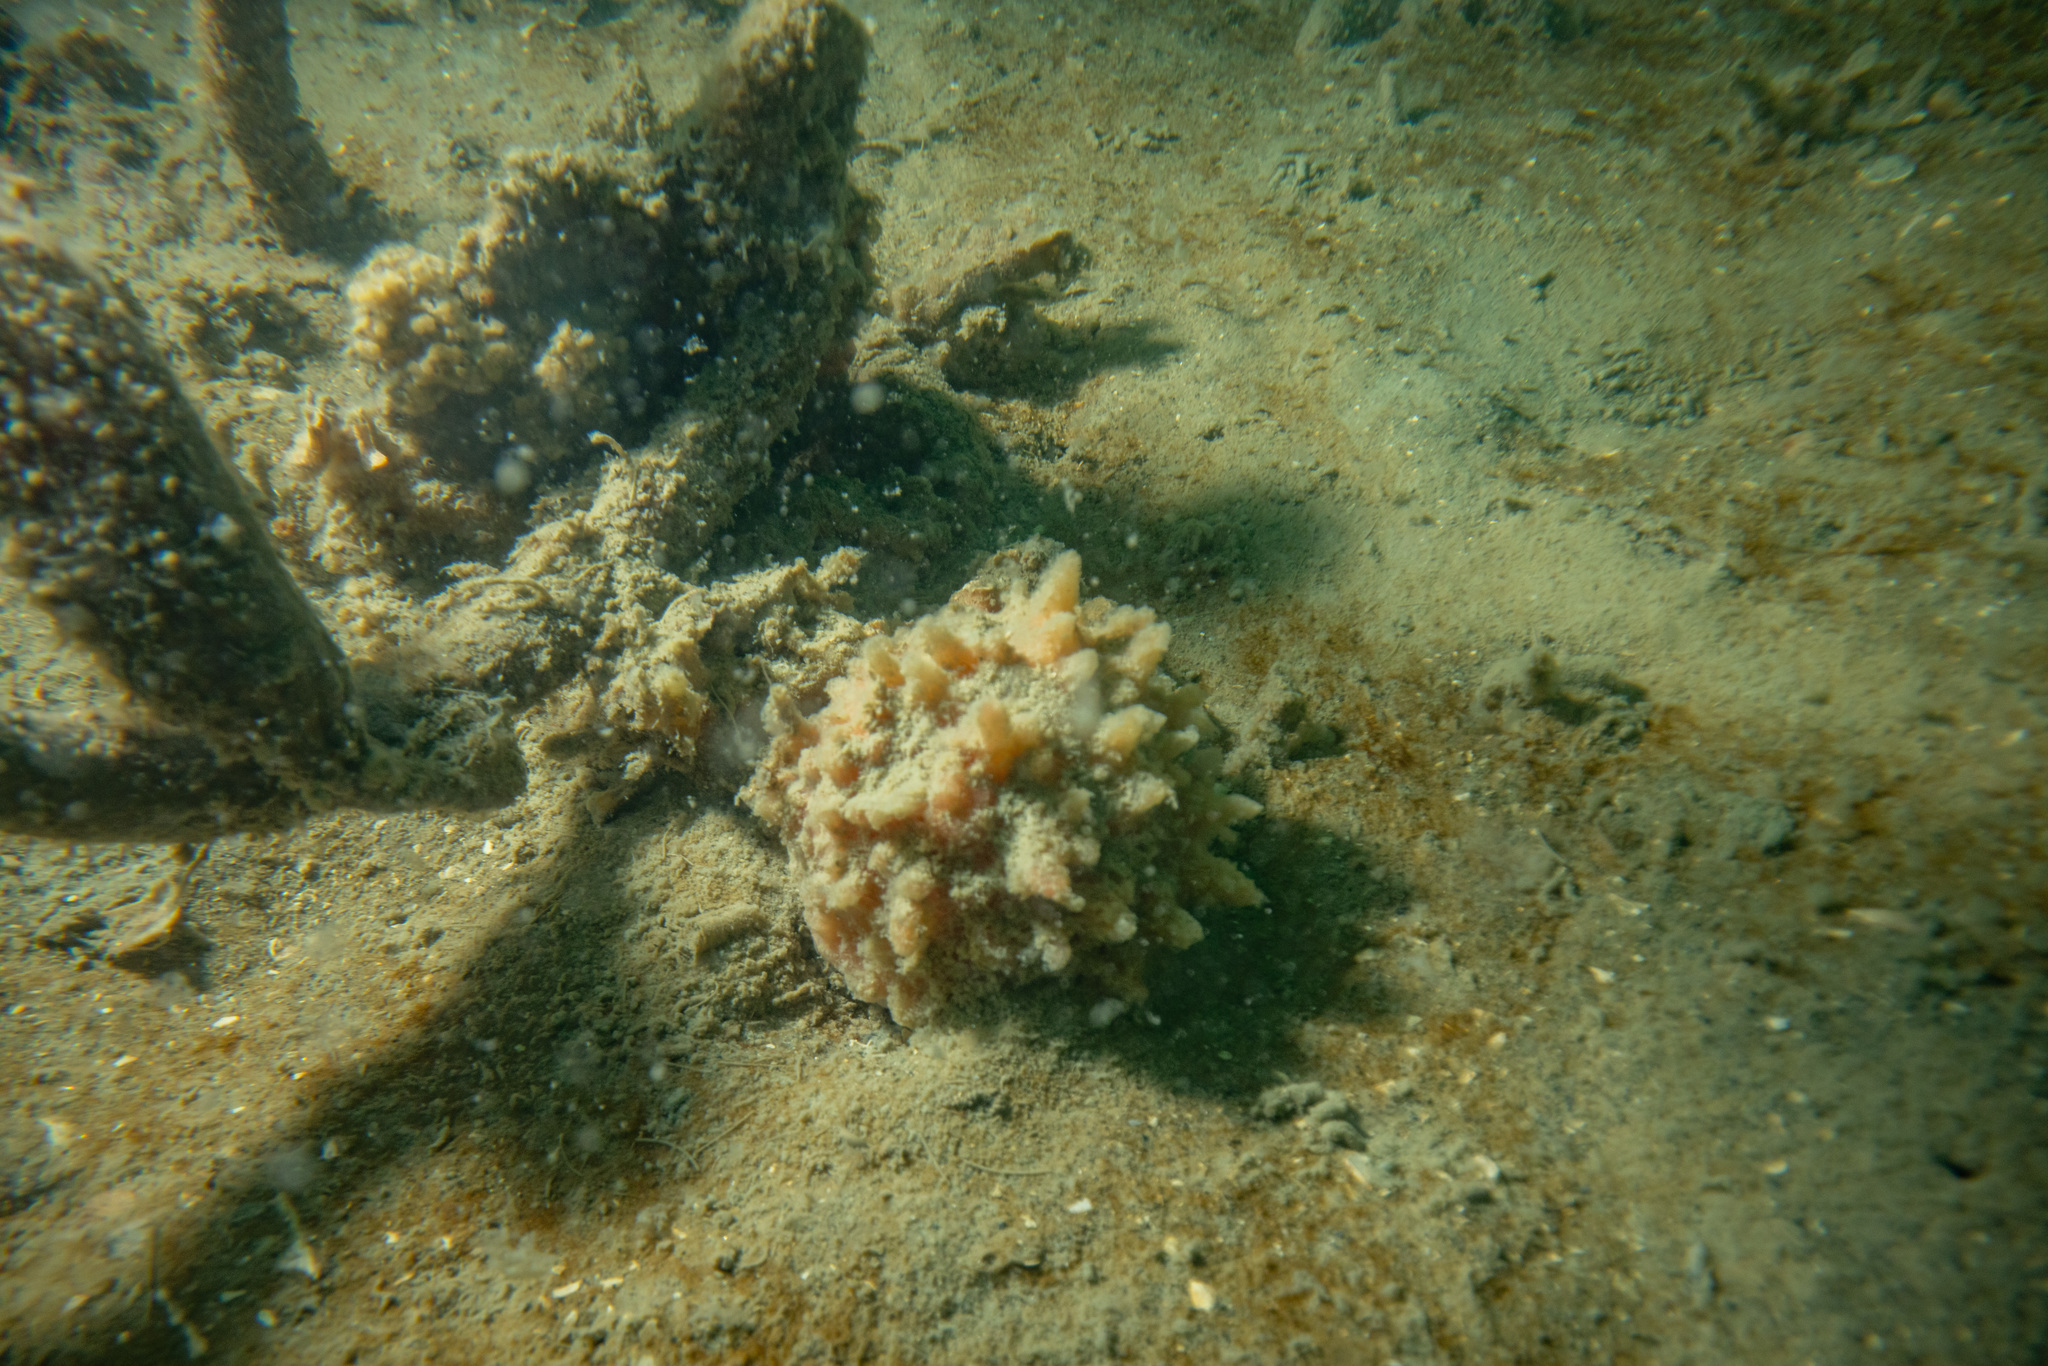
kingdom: Animalia
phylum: Porifera
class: Demospongiae
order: Suberitida
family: Suberitidae
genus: Aaptos
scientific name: Aaptos tenta
